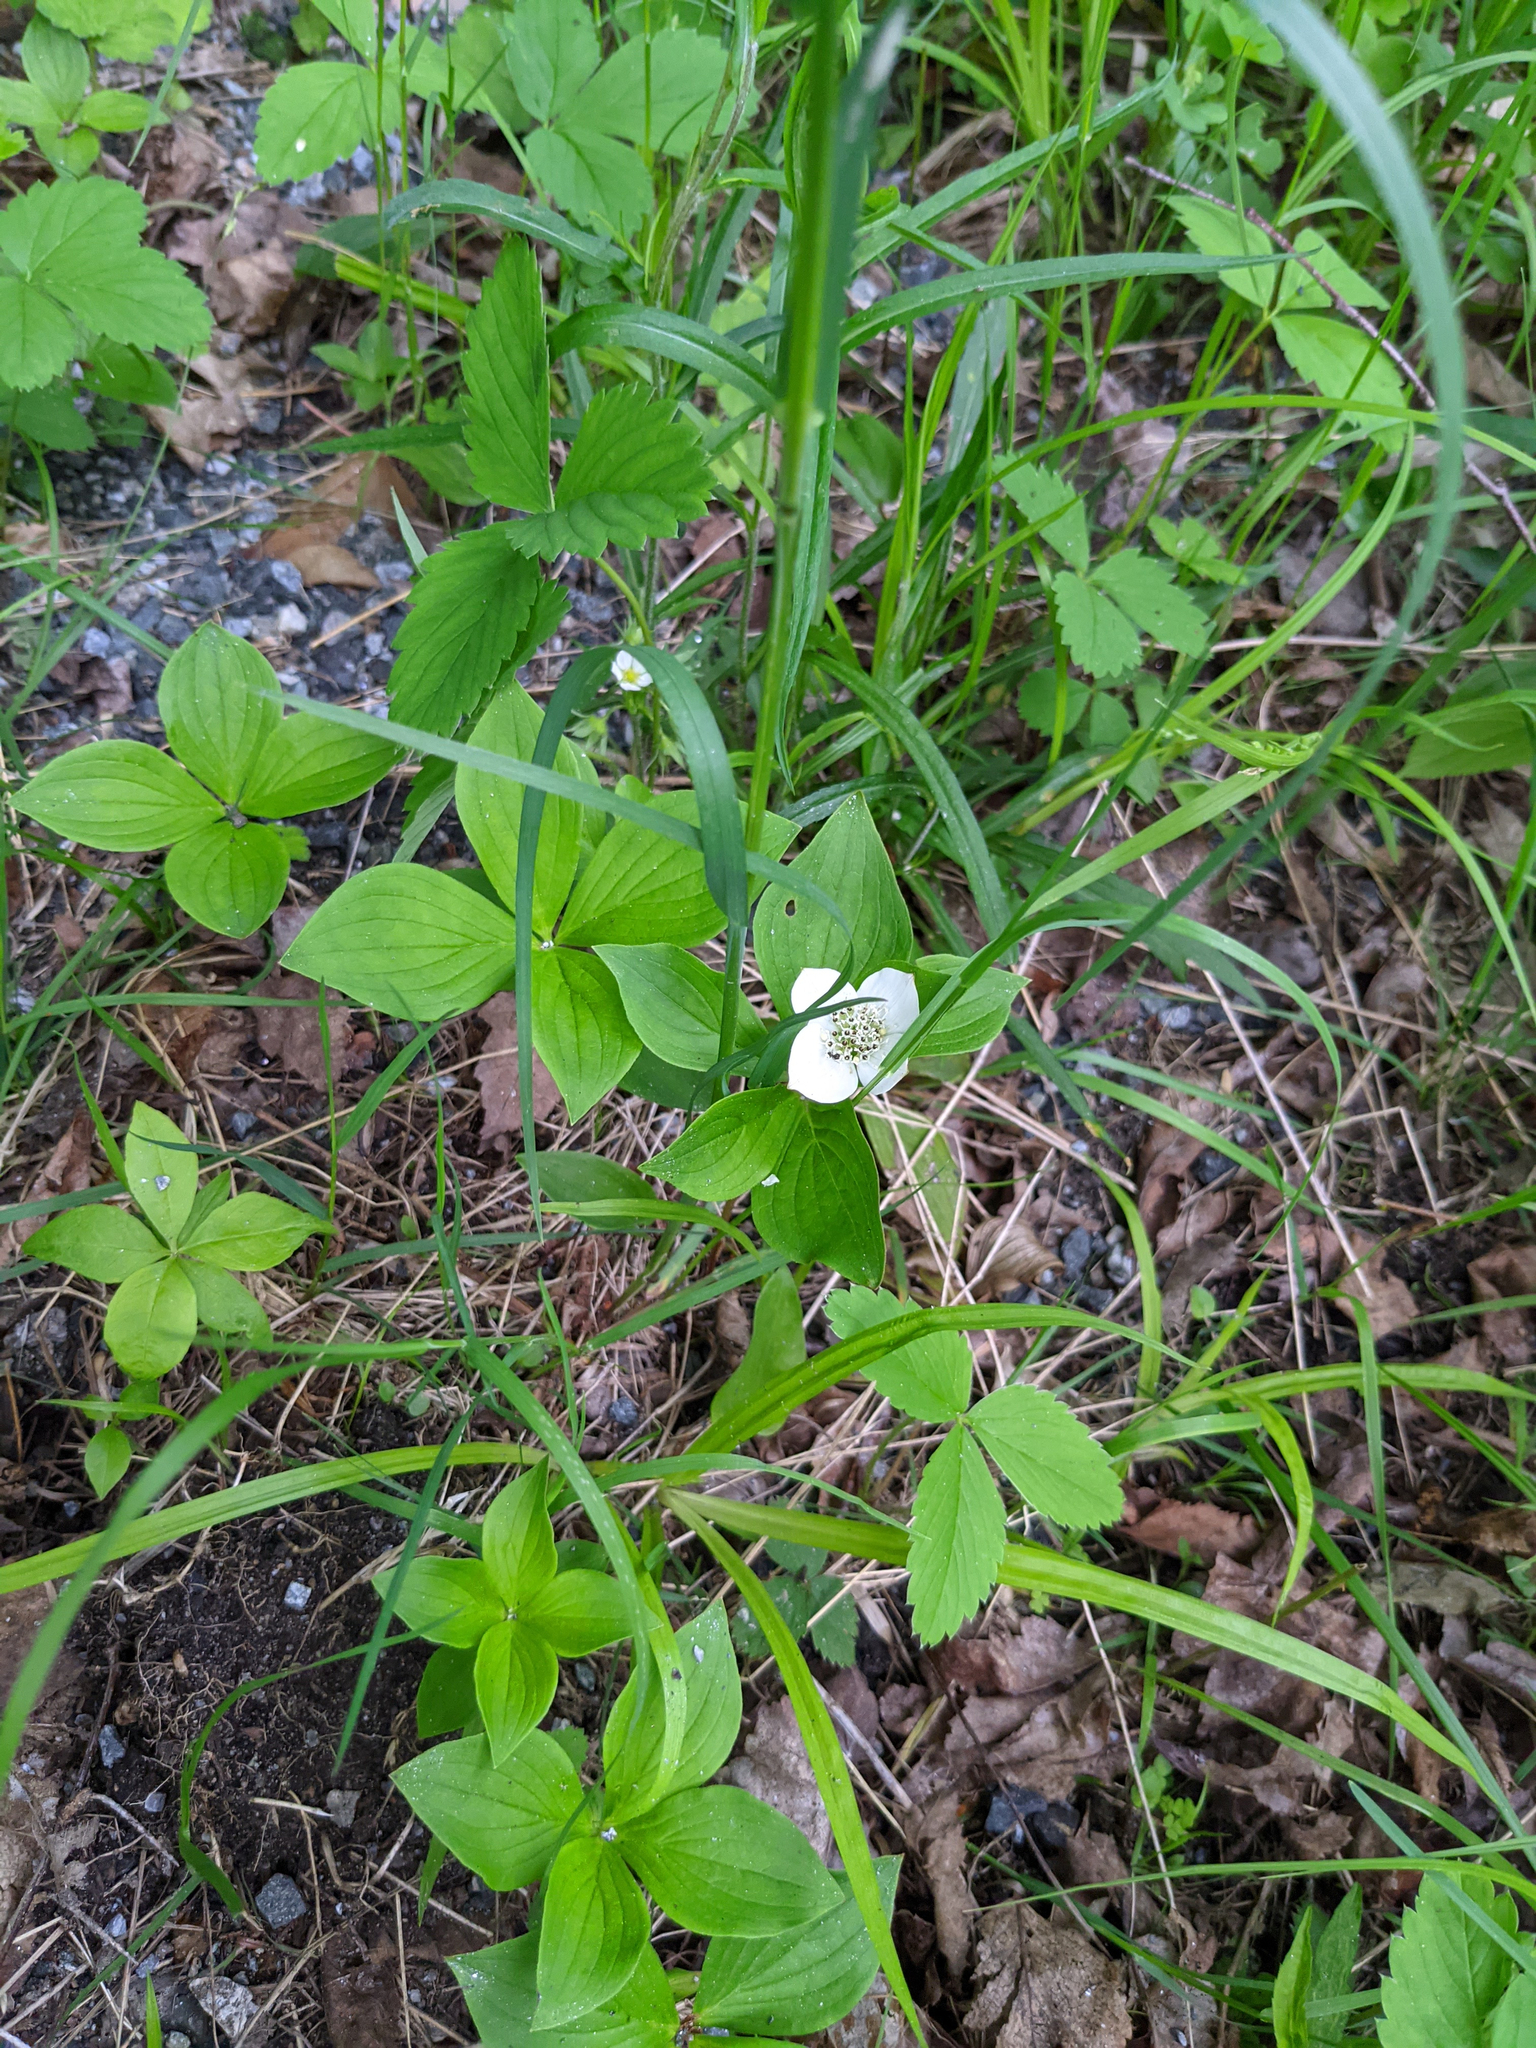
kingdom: Plantae
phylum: Tracheophyta
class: Magnoliopsida
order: Cornales
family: Cornaceae
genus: Cornus
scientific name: Cornus canadensis
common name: Creeping dogwood
